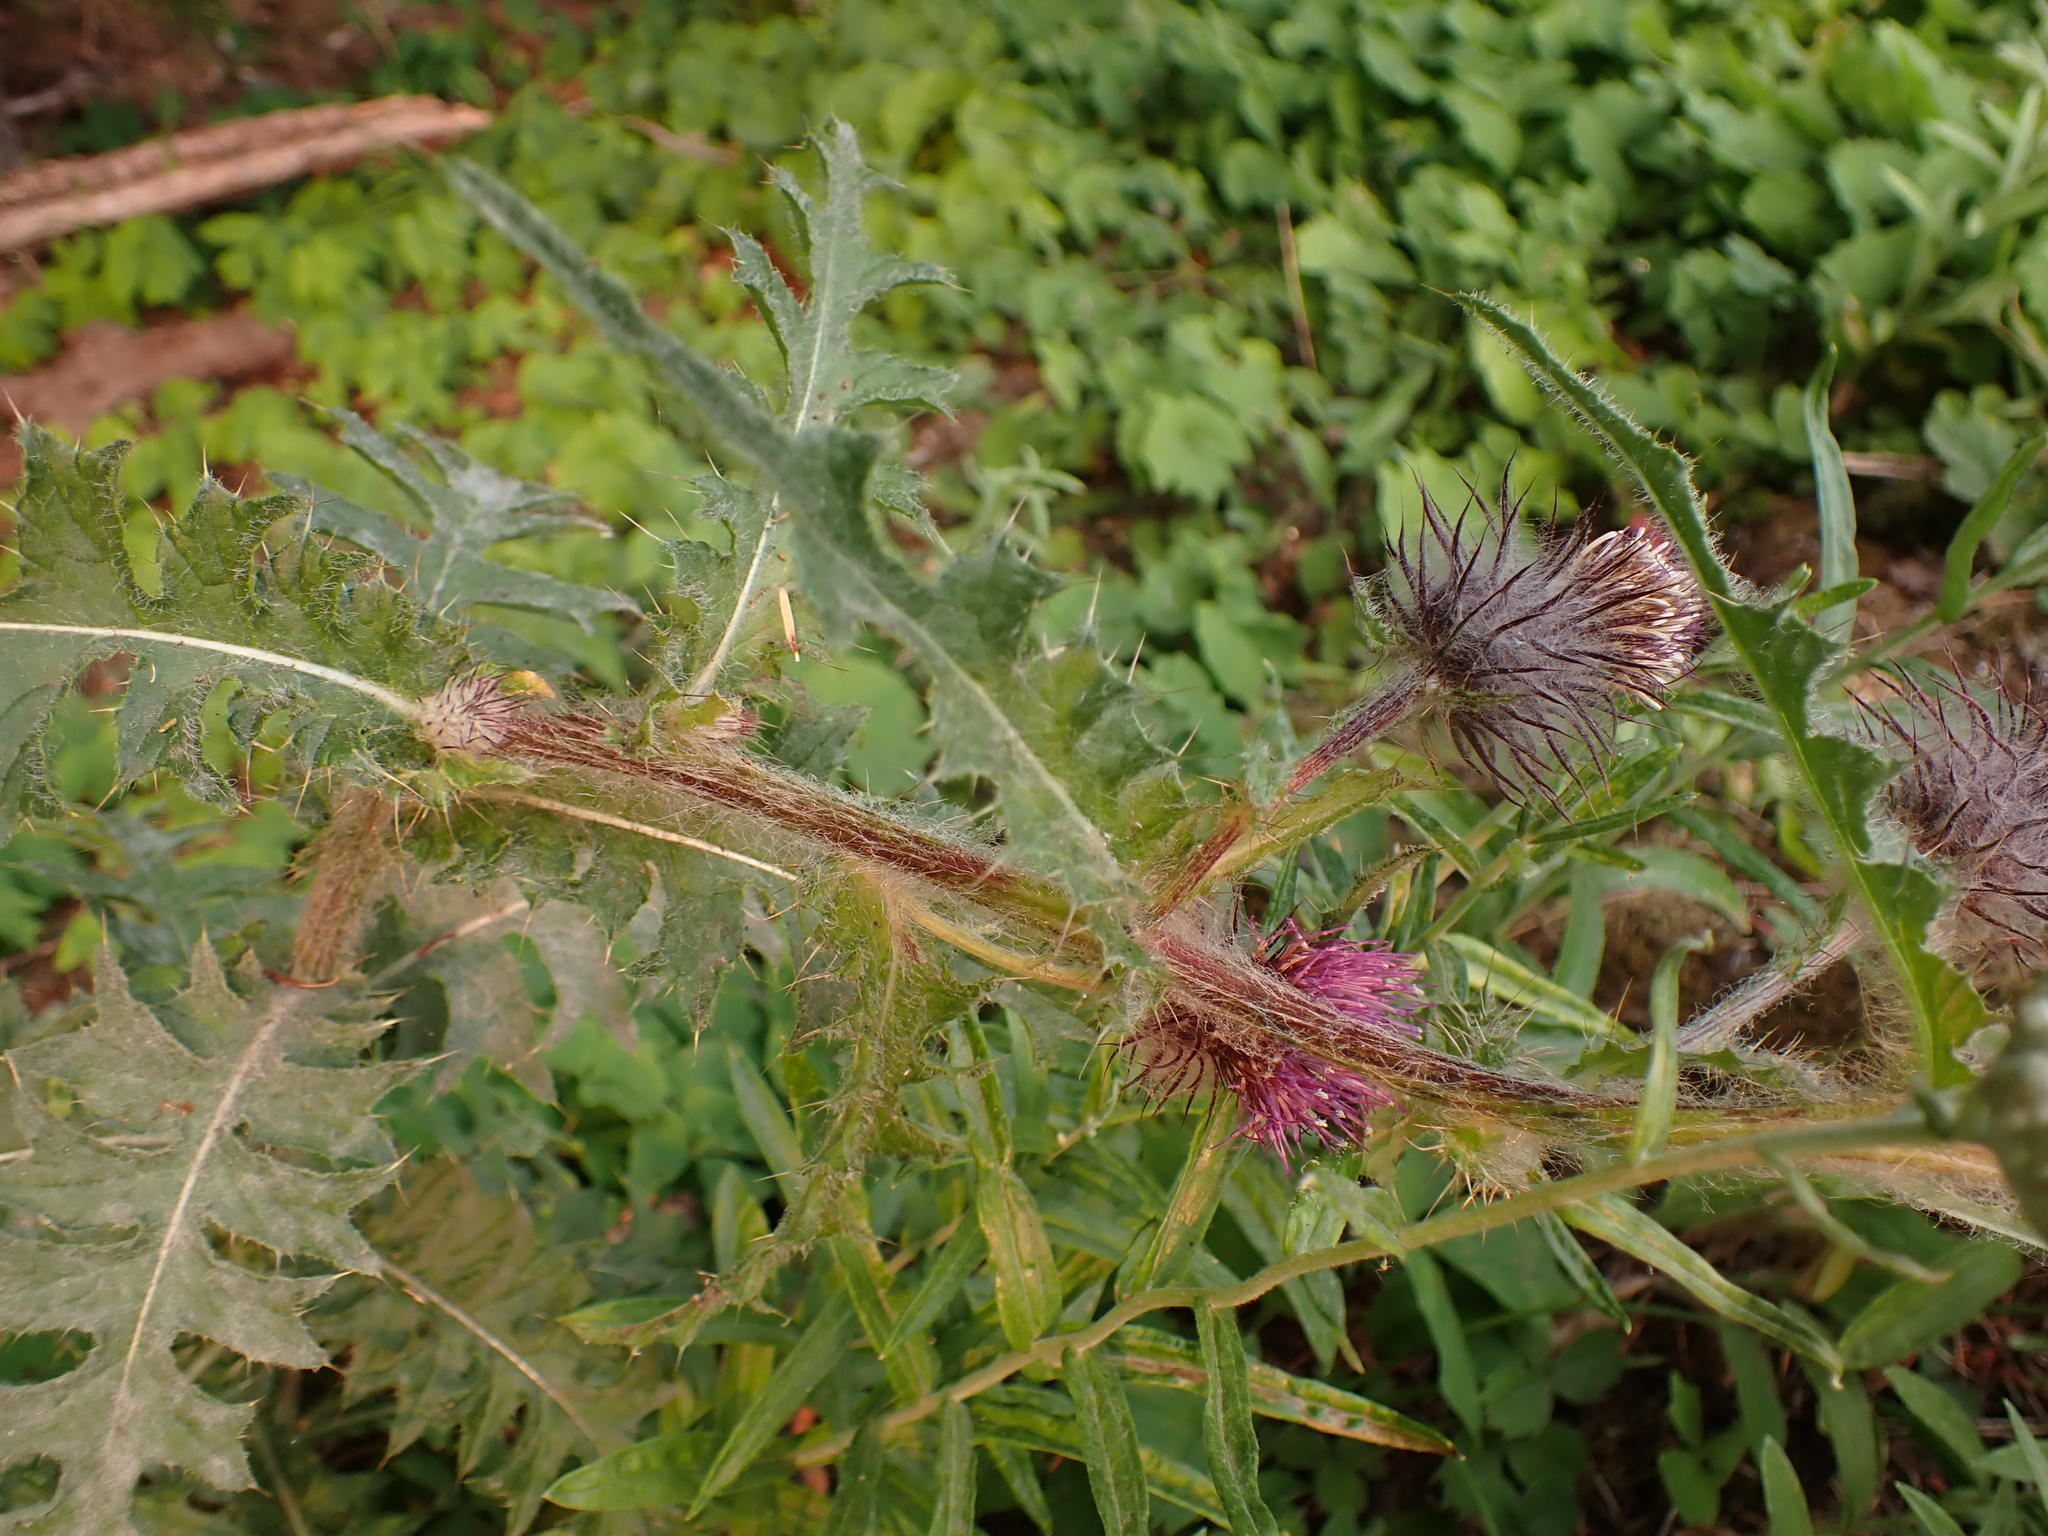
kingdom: Plantae
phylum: Tracheophyta
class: Magnoliopsida
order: Asterales
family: Asteraceae
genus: Cirsium
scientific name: Cirsium edule
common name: Indian thistle
